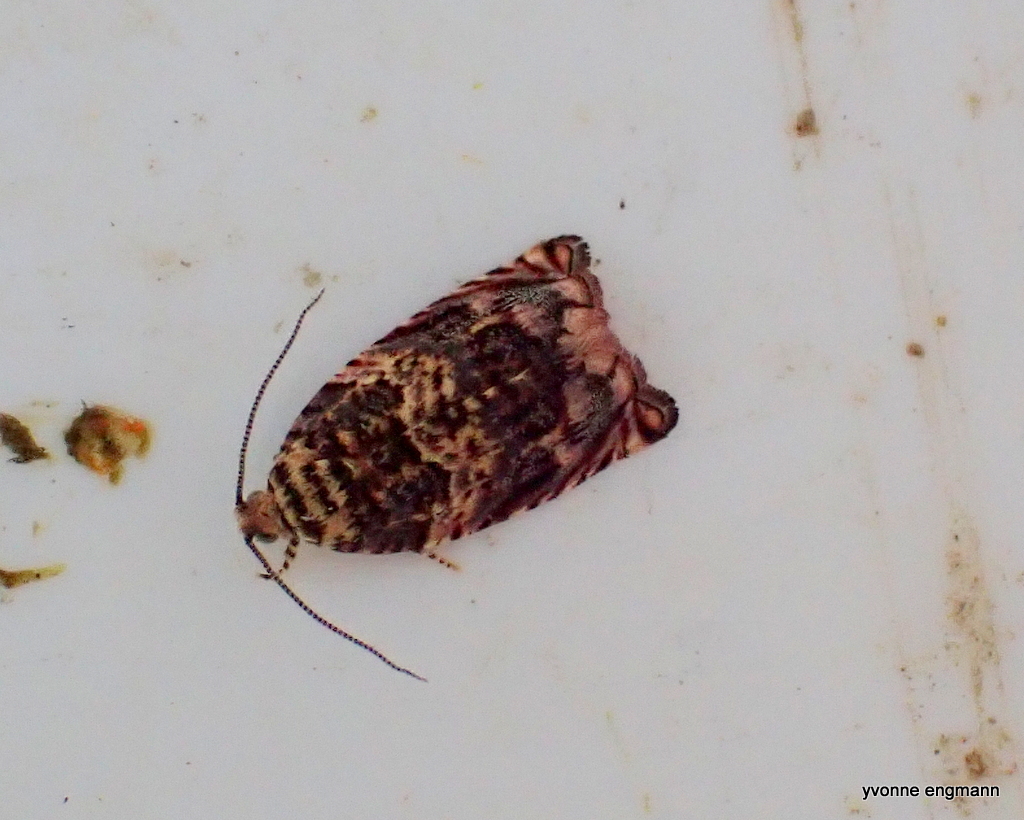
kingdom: Animalia
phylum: Arthropoda
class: Insecta
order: Lepidoptera
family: Tortricidae
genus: Epinotia
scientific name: Epinotia abbreviana
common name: Tortricid moth
